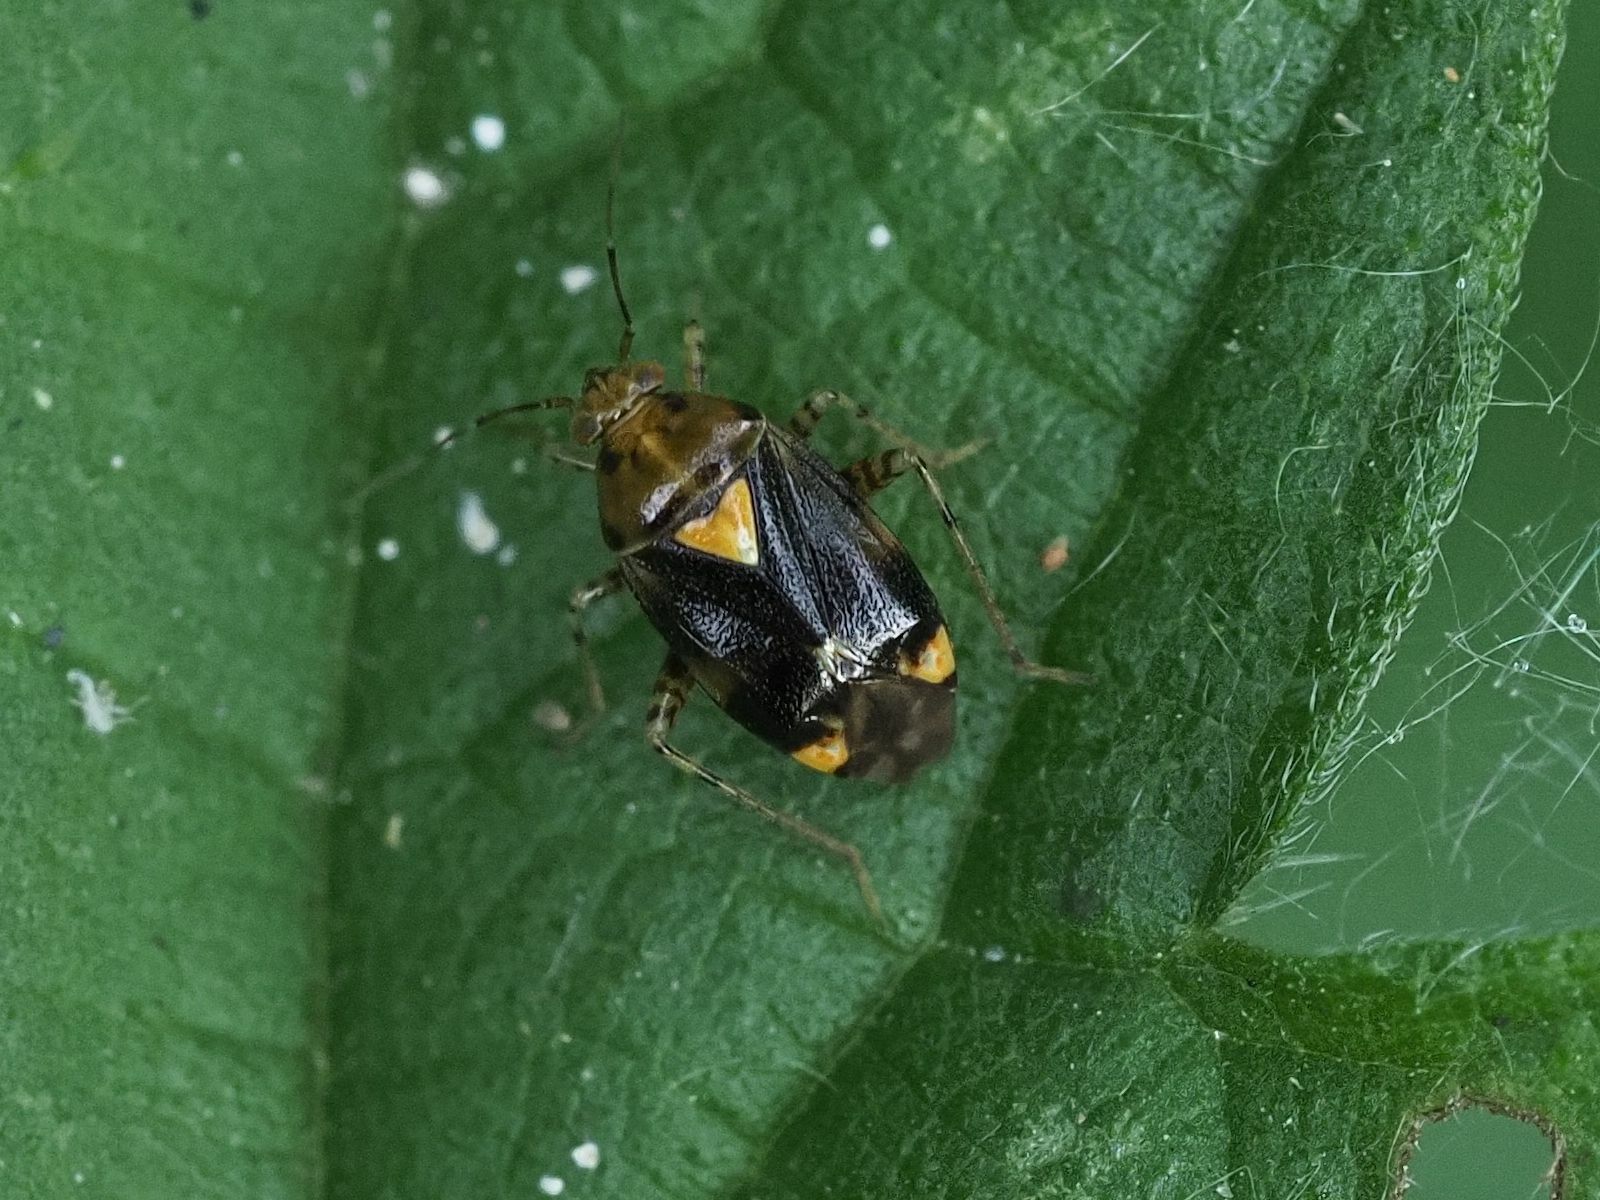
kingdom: Animalia
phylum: Arthropoda
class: Insecta
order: Hemiptera
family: Miridae
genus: Liocoris
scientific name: Liocoris tripustulatus
